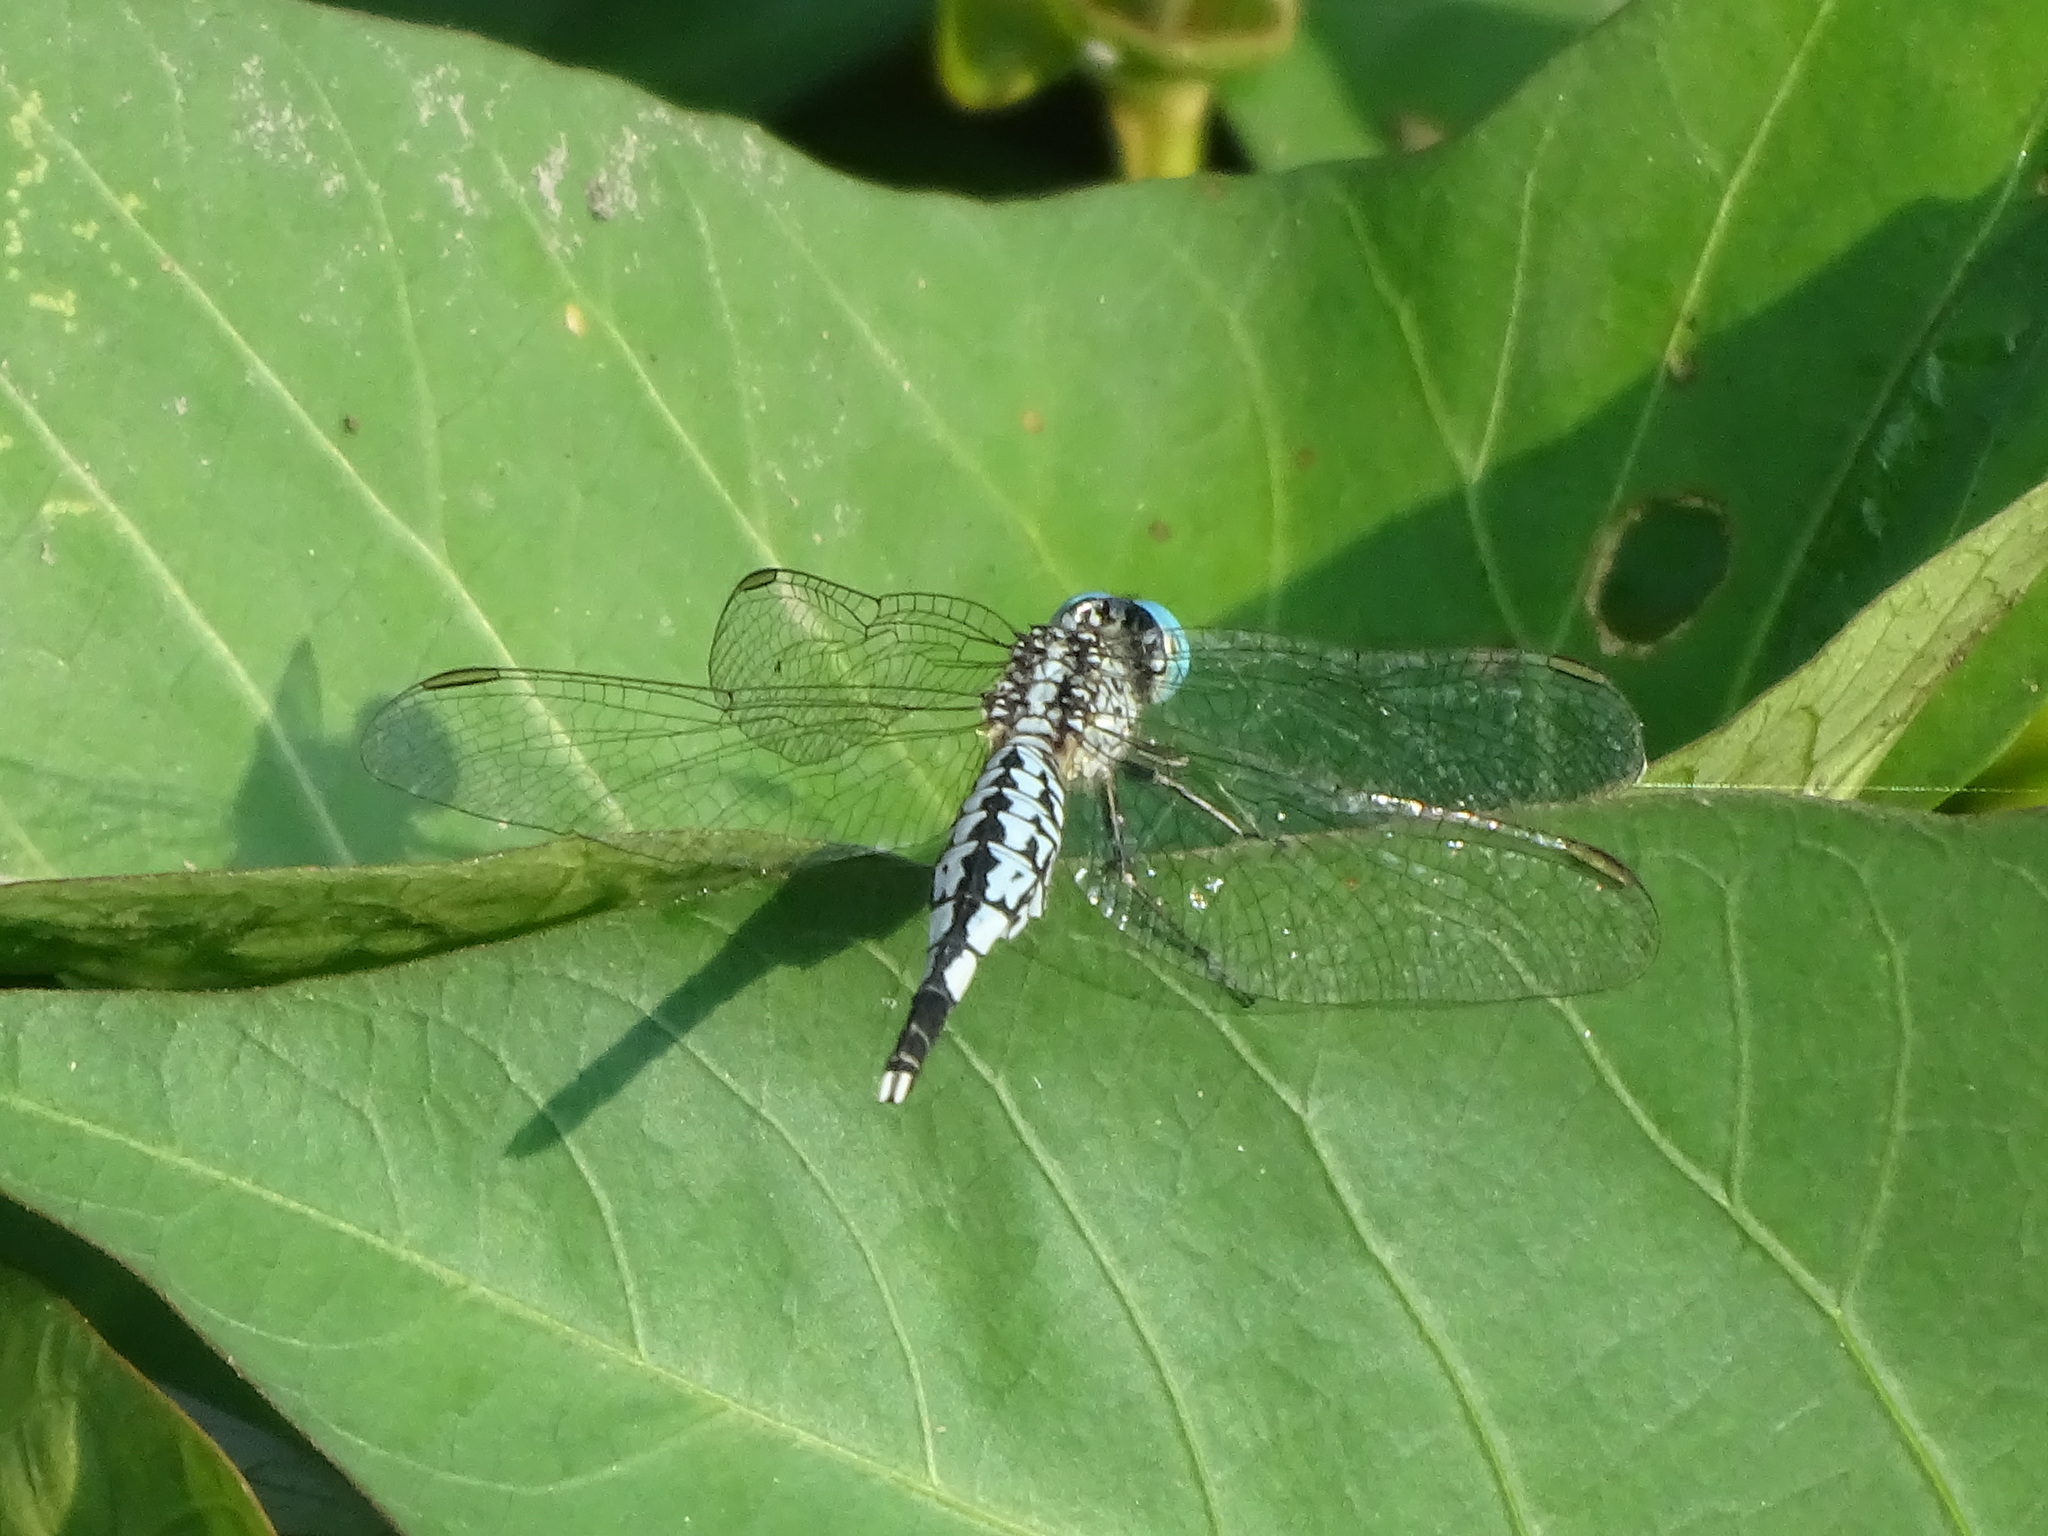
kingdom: Animalia
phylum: Arthropoda
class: Insecta
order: Odonata
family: Libellulidae
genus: Acisoma
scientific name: Acisoma panorpoides
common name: Asian pintail
